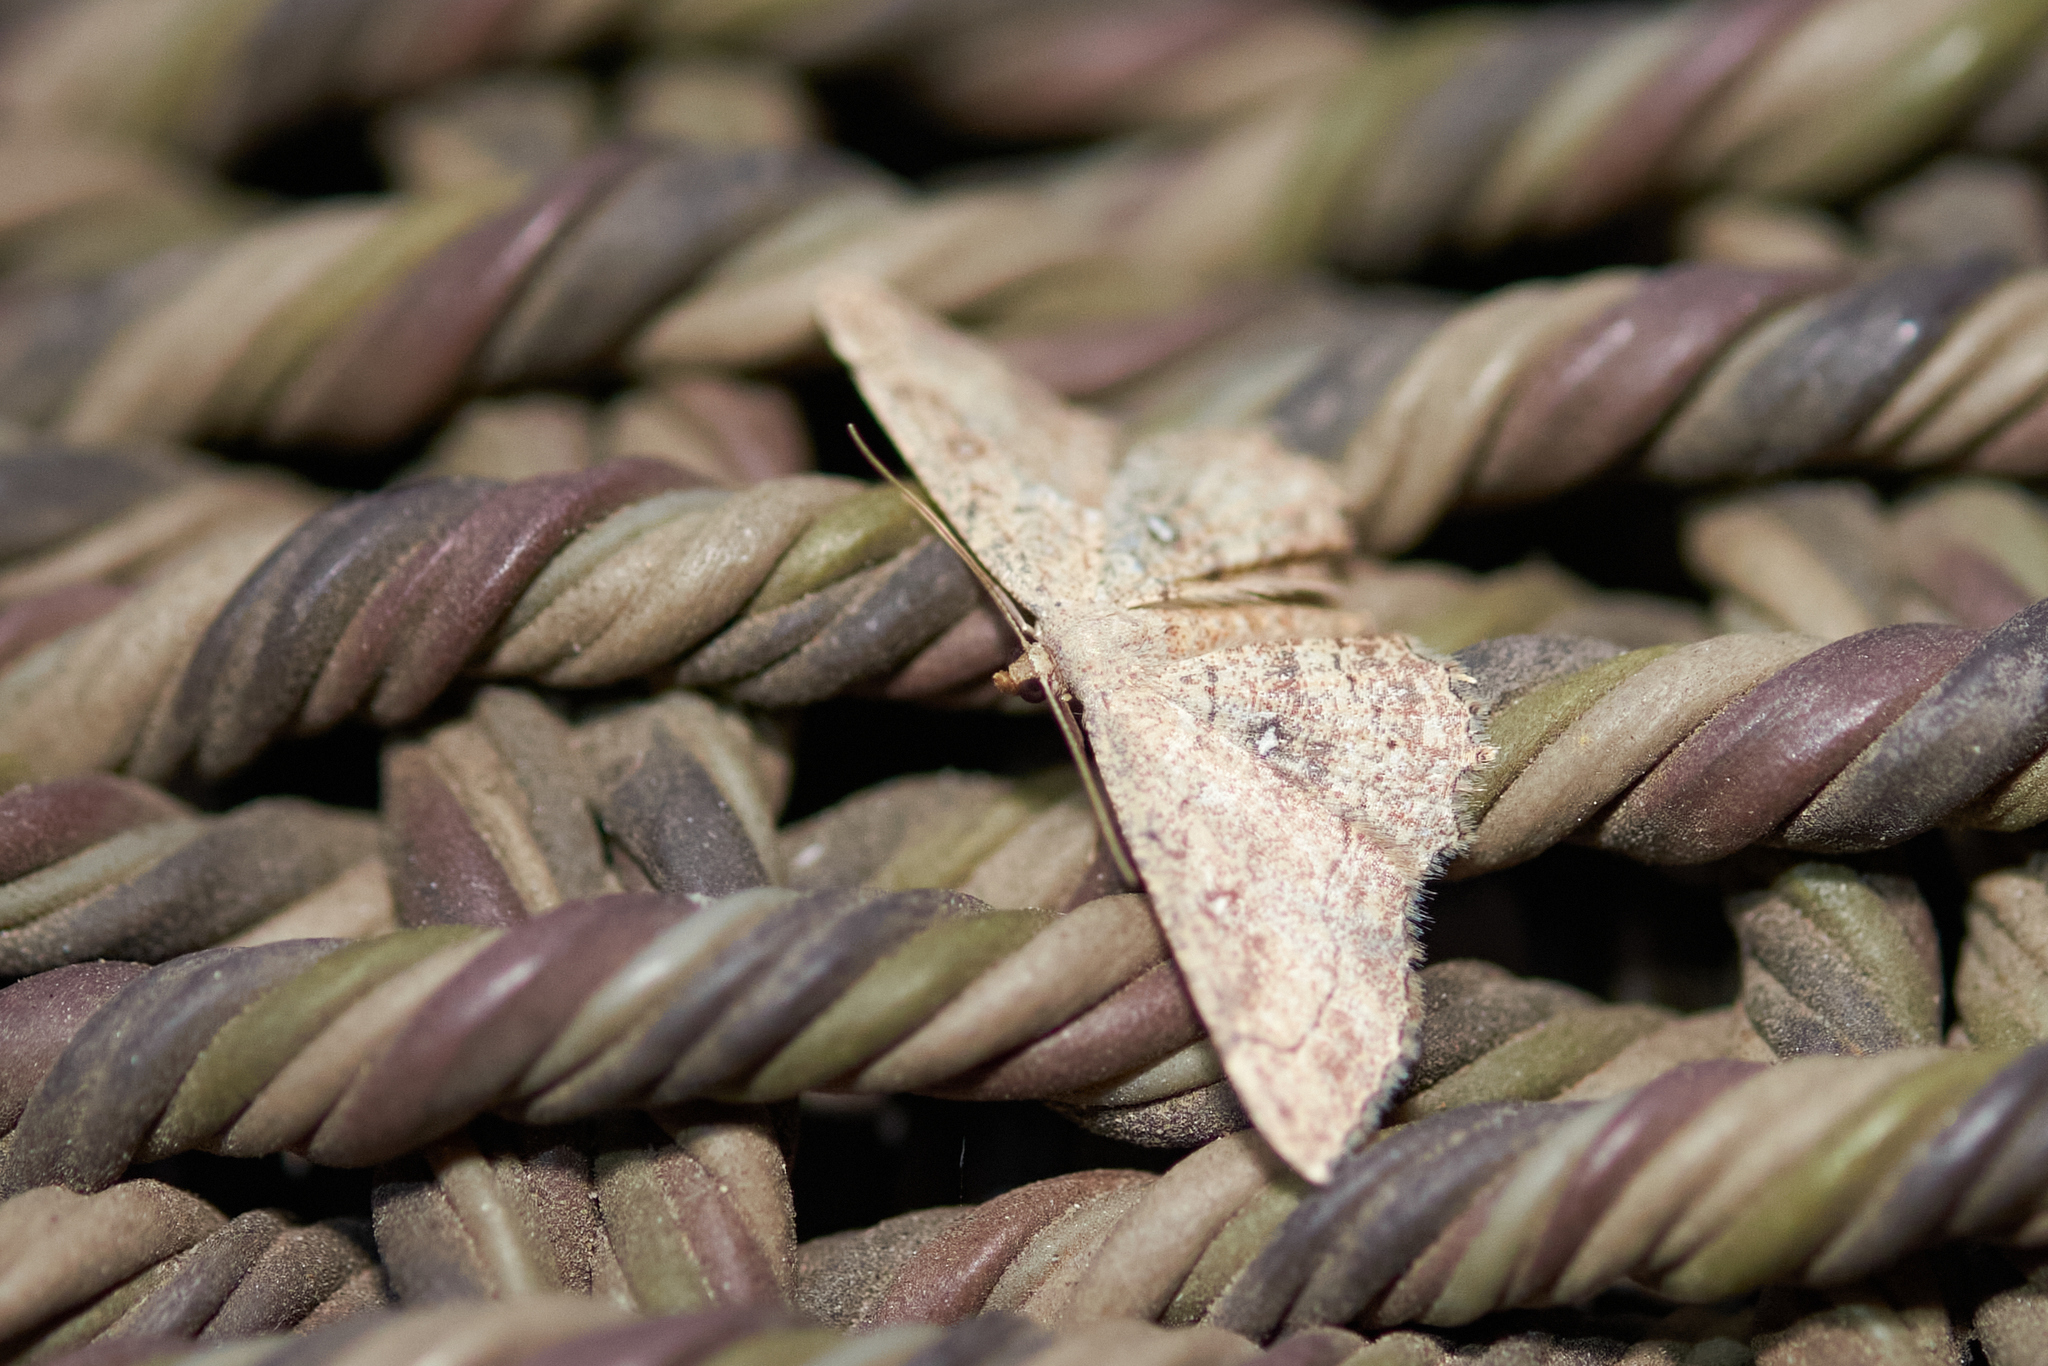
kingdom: Animalia
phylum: Arthropoda
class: Insecta
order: Lepidoptera
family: Geometridae
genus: Cyclophora
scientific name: Cyclophora nanaria
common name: Cankerworm
